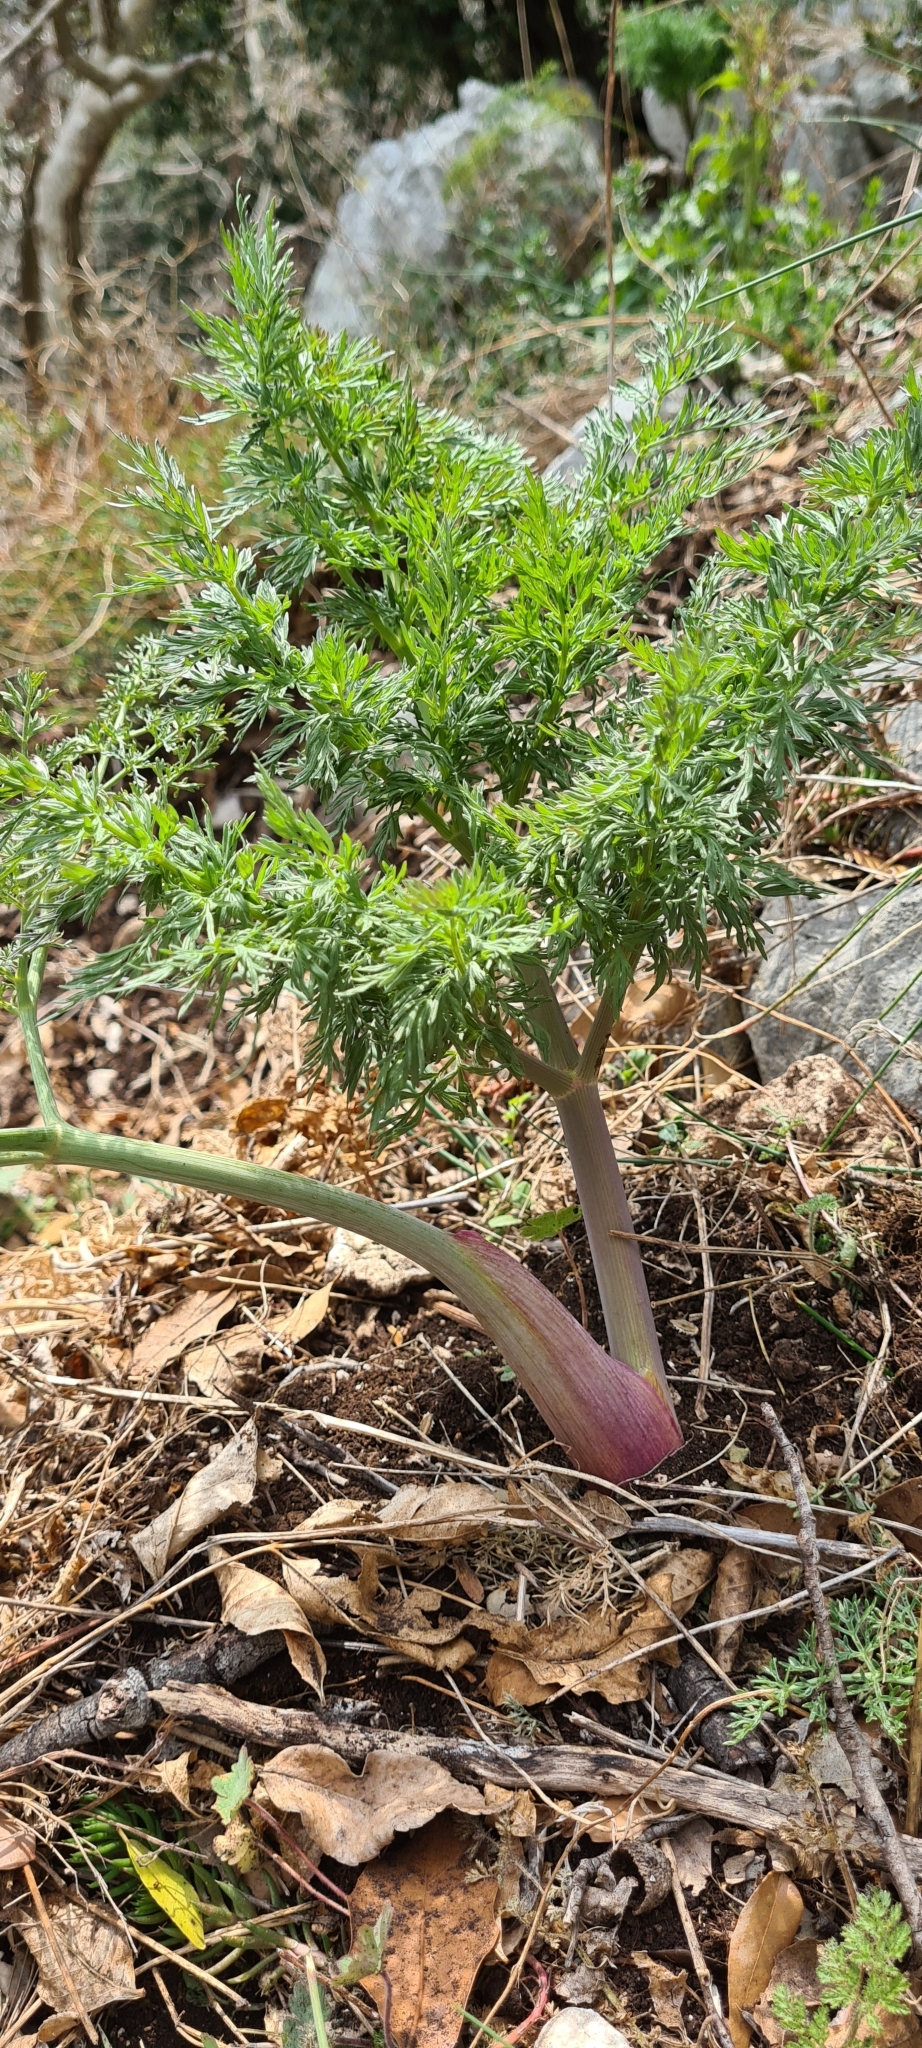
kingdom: Plantae
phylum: Tracheophyta
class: Magnoliopsida
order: Apiales
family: Apiaceae
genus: Ferula
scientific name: Ferula communis
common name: Giant fennel
